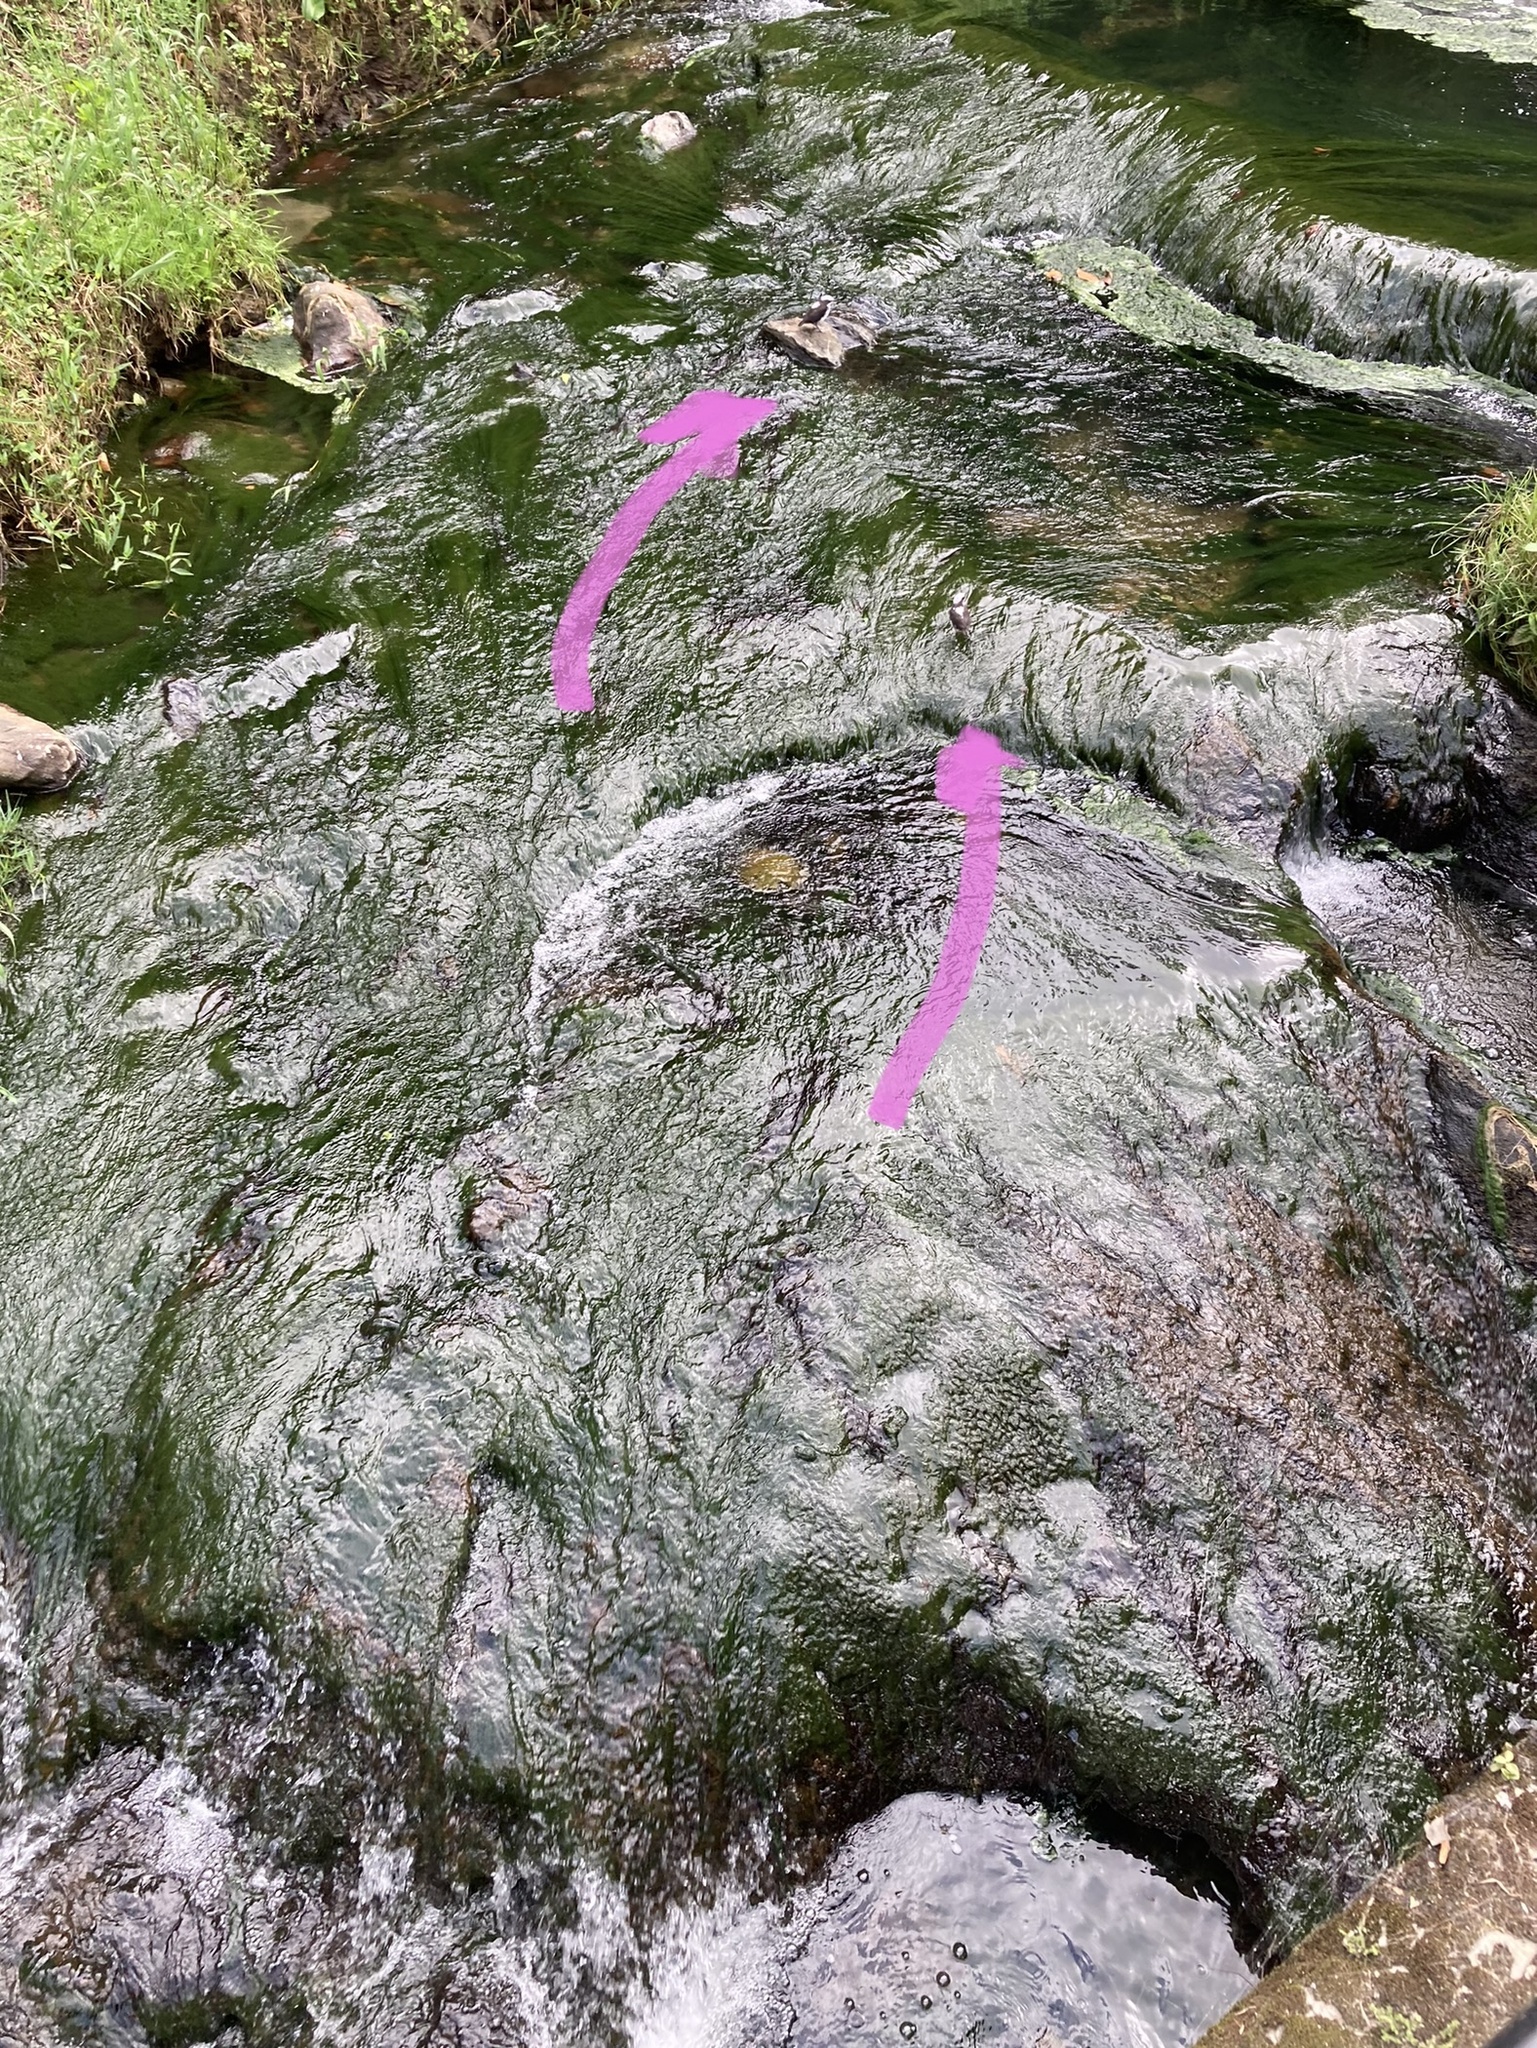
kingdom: Animalia
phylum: Chordata
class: Aves
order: Passeriformes
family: Cinclidae
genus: Cinclus
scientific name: Cinclus leucocephalus
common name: White-capped dipper
